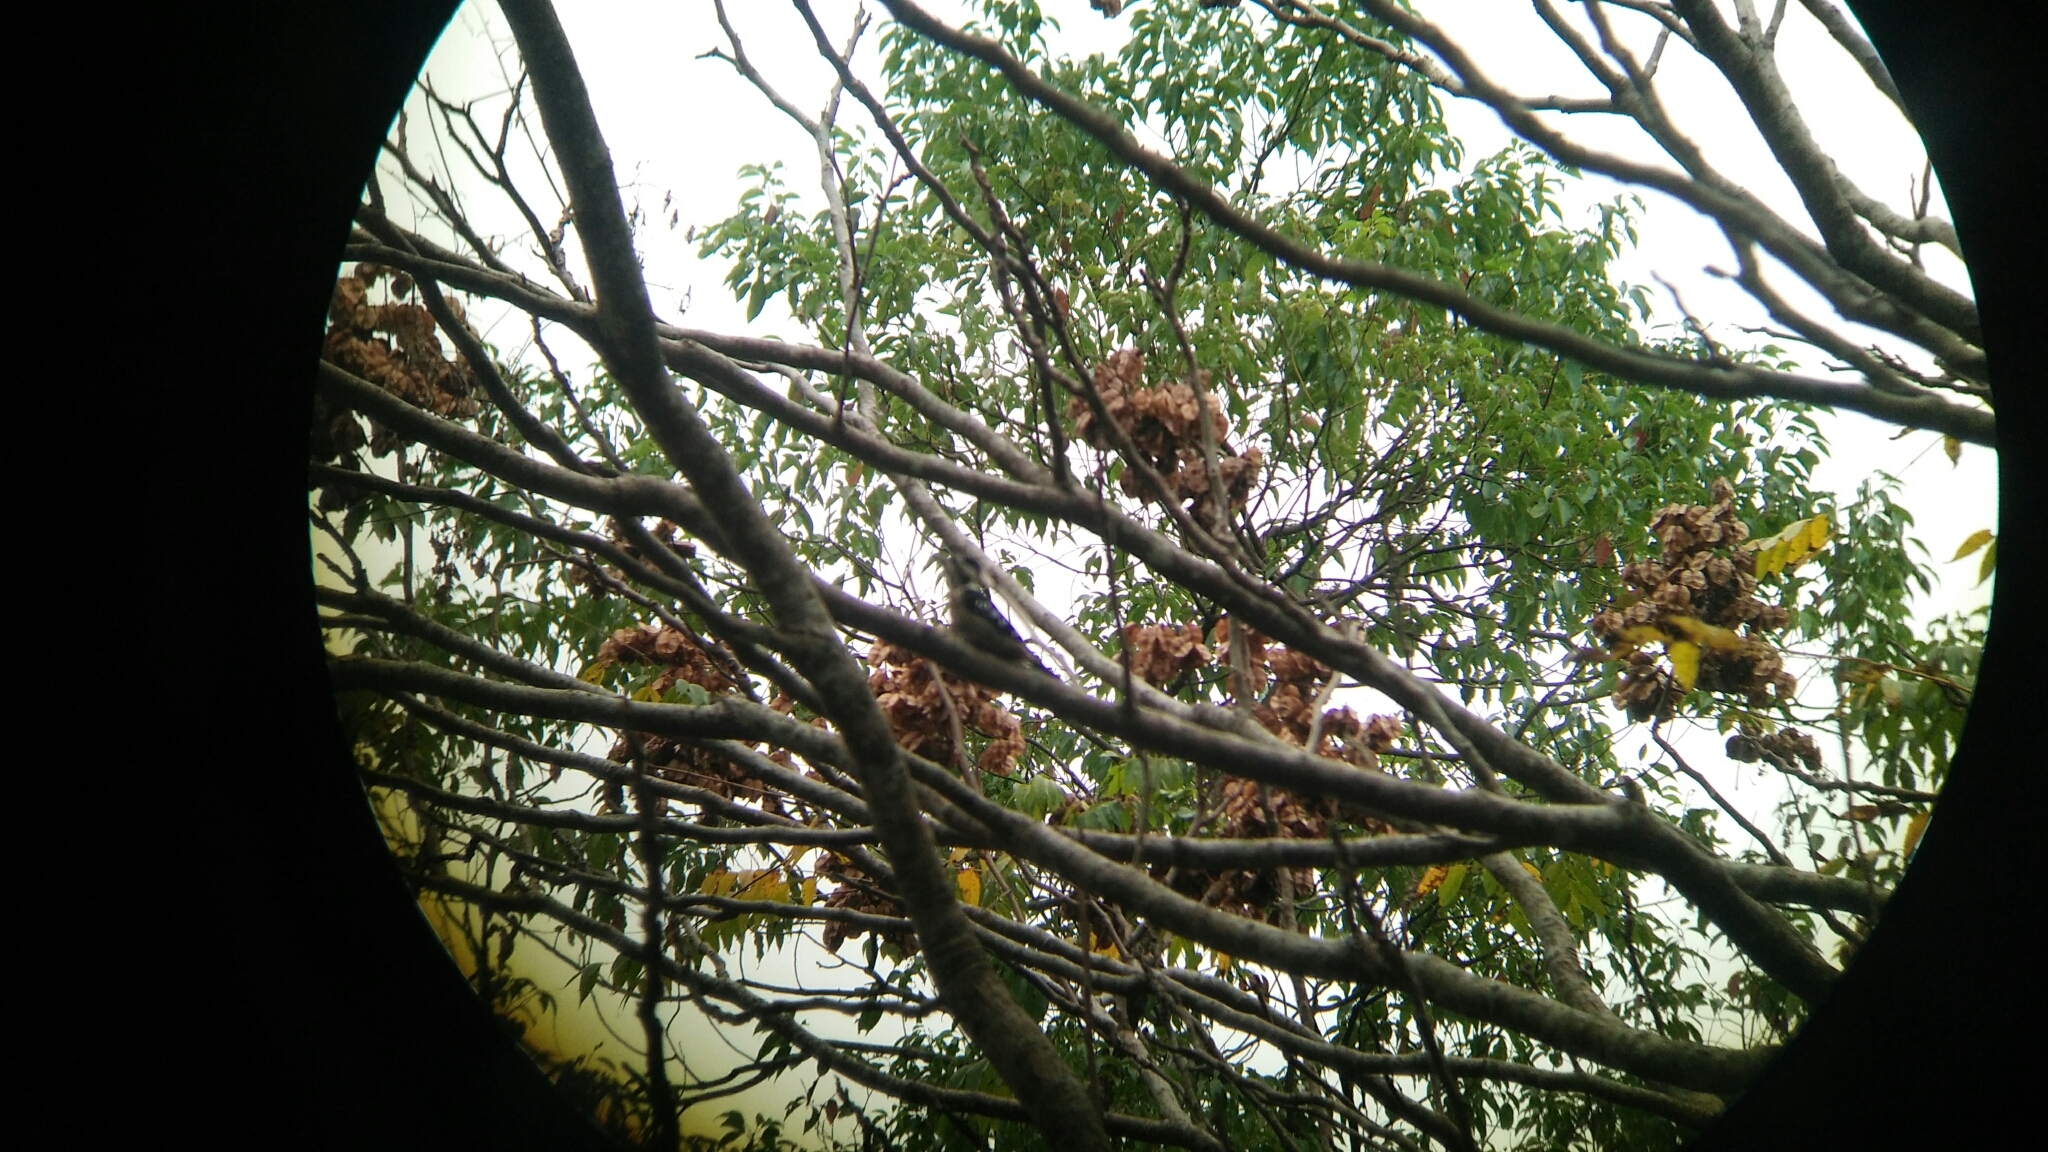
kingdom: Animalia
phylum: Chordata
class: Aves
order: Piciformes
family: Picidae
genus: Yungipicus
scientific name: Yungipicus canicapillus
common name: Grey-capped pygmy woodpecker
